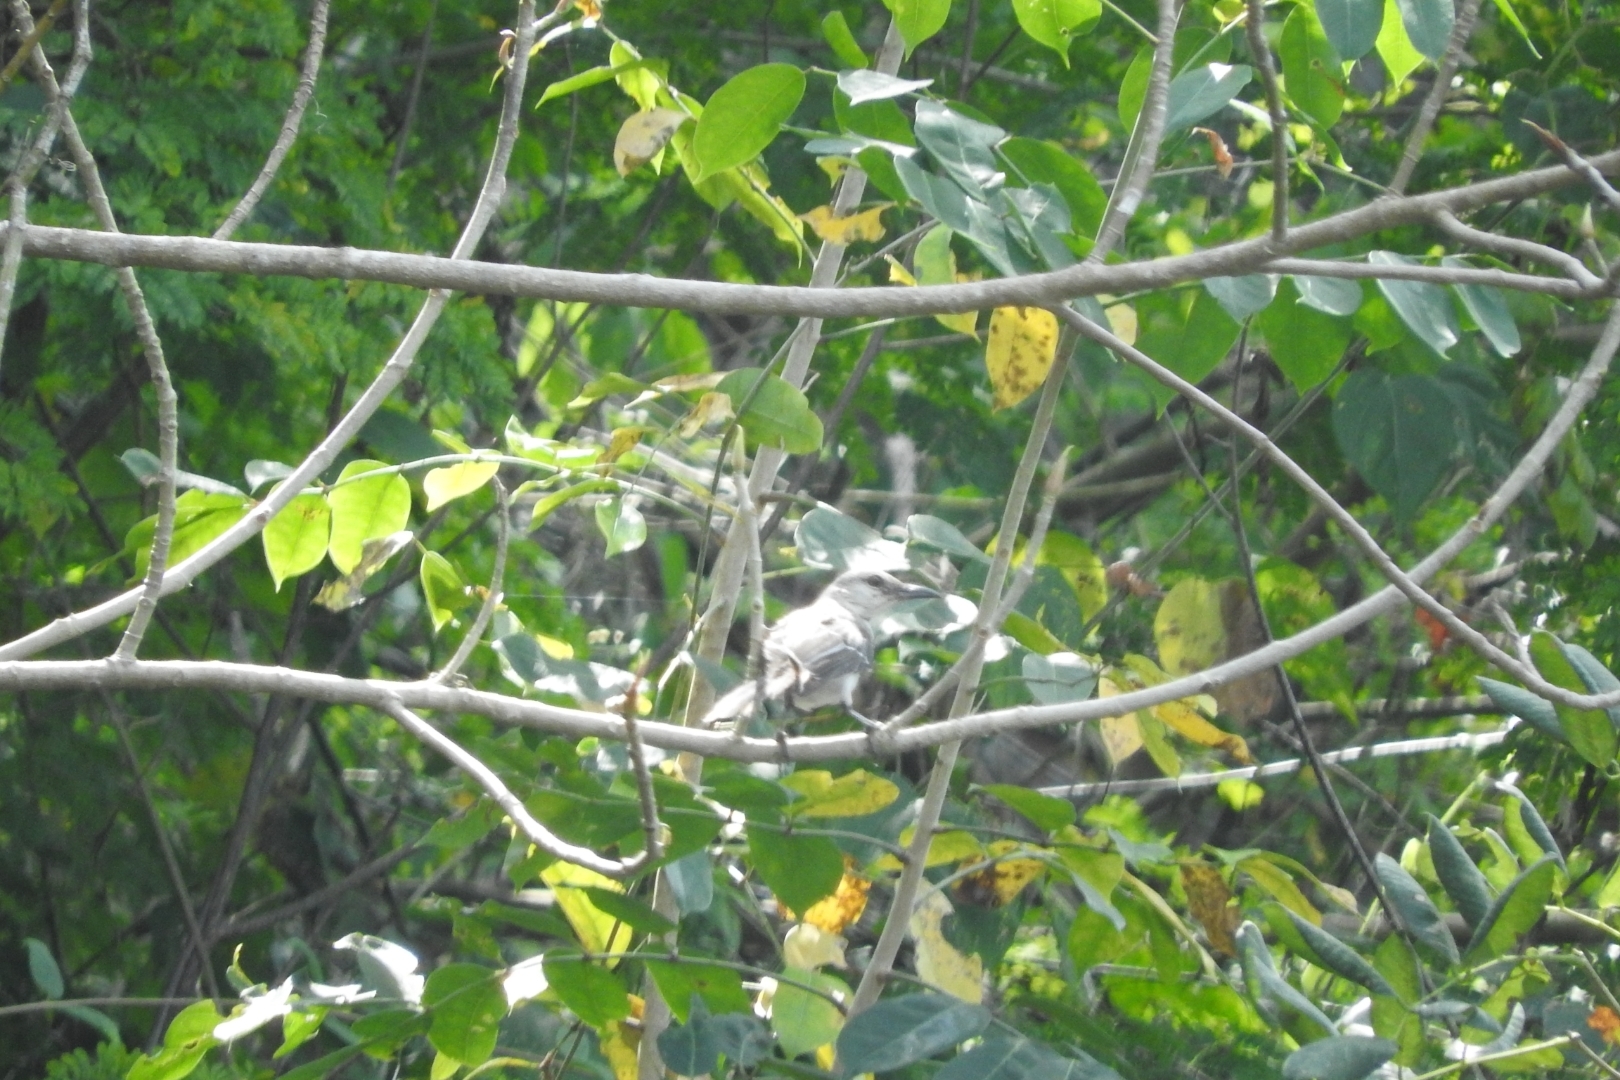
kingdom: Animalia
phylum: Chordata
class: Aves
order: Passeriformes
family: Mimidae
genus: Mimus
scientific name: Mimus gilvus
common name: Tropical mockingbird
